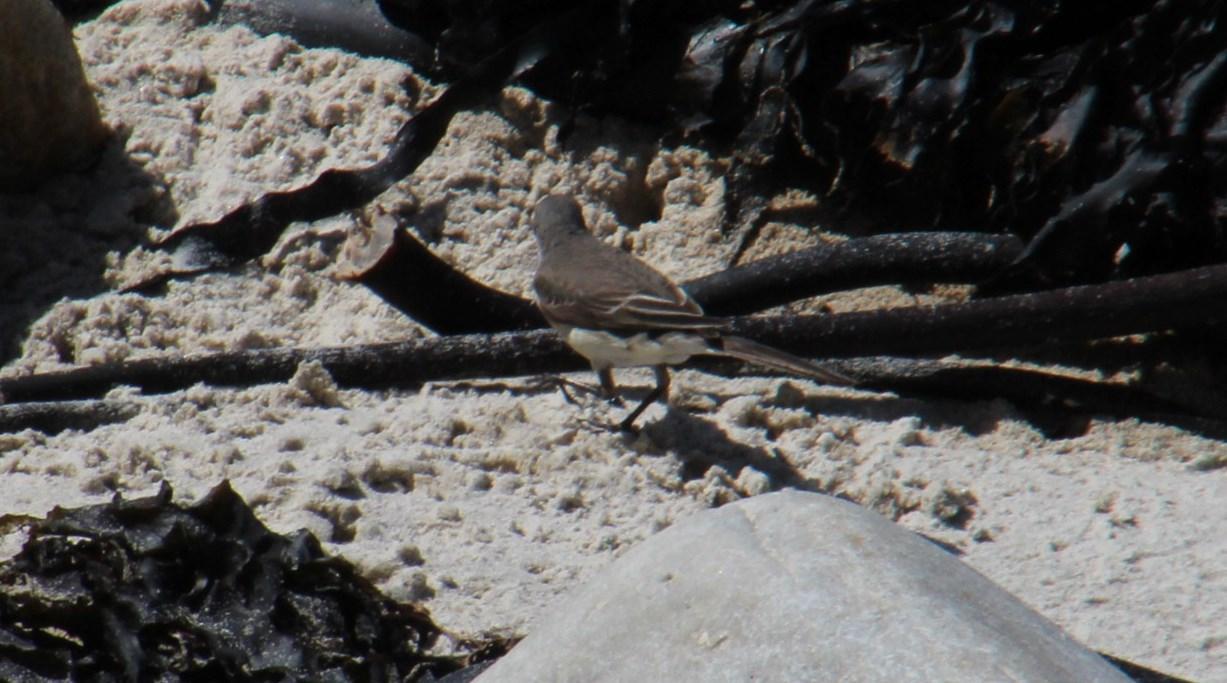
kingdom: Animalia
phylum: Chordata
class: Aves
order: Passeriformes
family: Motacillidae
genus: Motacilla
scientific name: Motacilla capensis
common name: Cape wagtail
